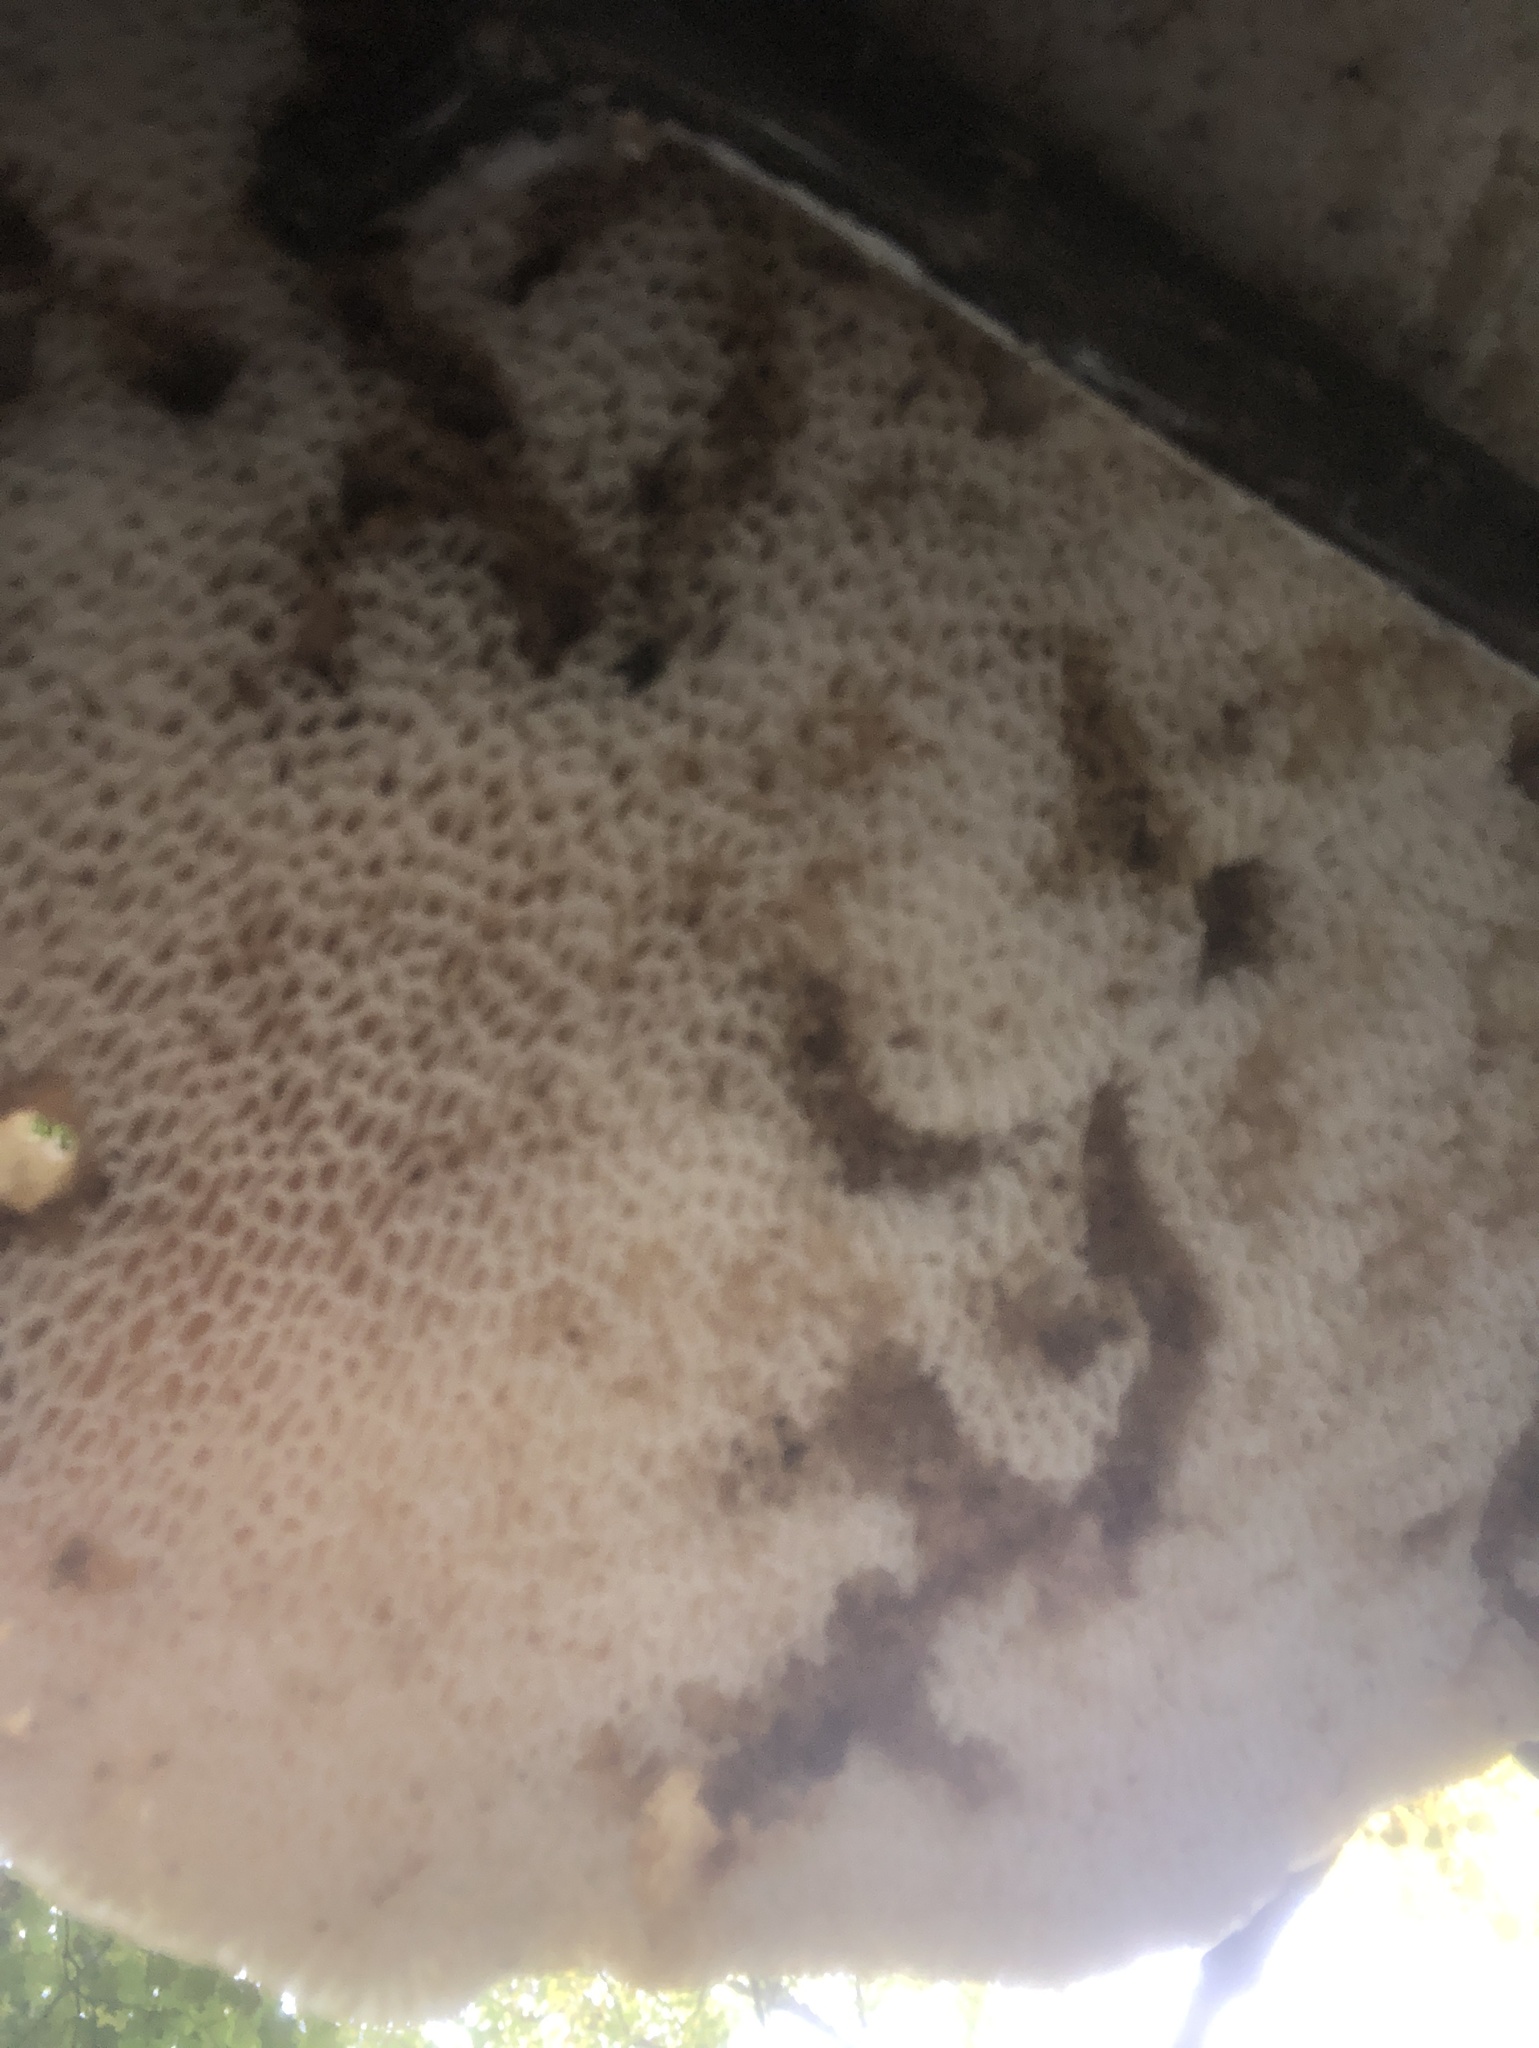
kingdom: Fungi
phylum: Basidiomycota
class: Agaricomycetes
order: Polyporales
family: Polyporaceae
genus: Cerioporus
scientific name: Cerioporus squamosus
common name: Dryad's saddle
